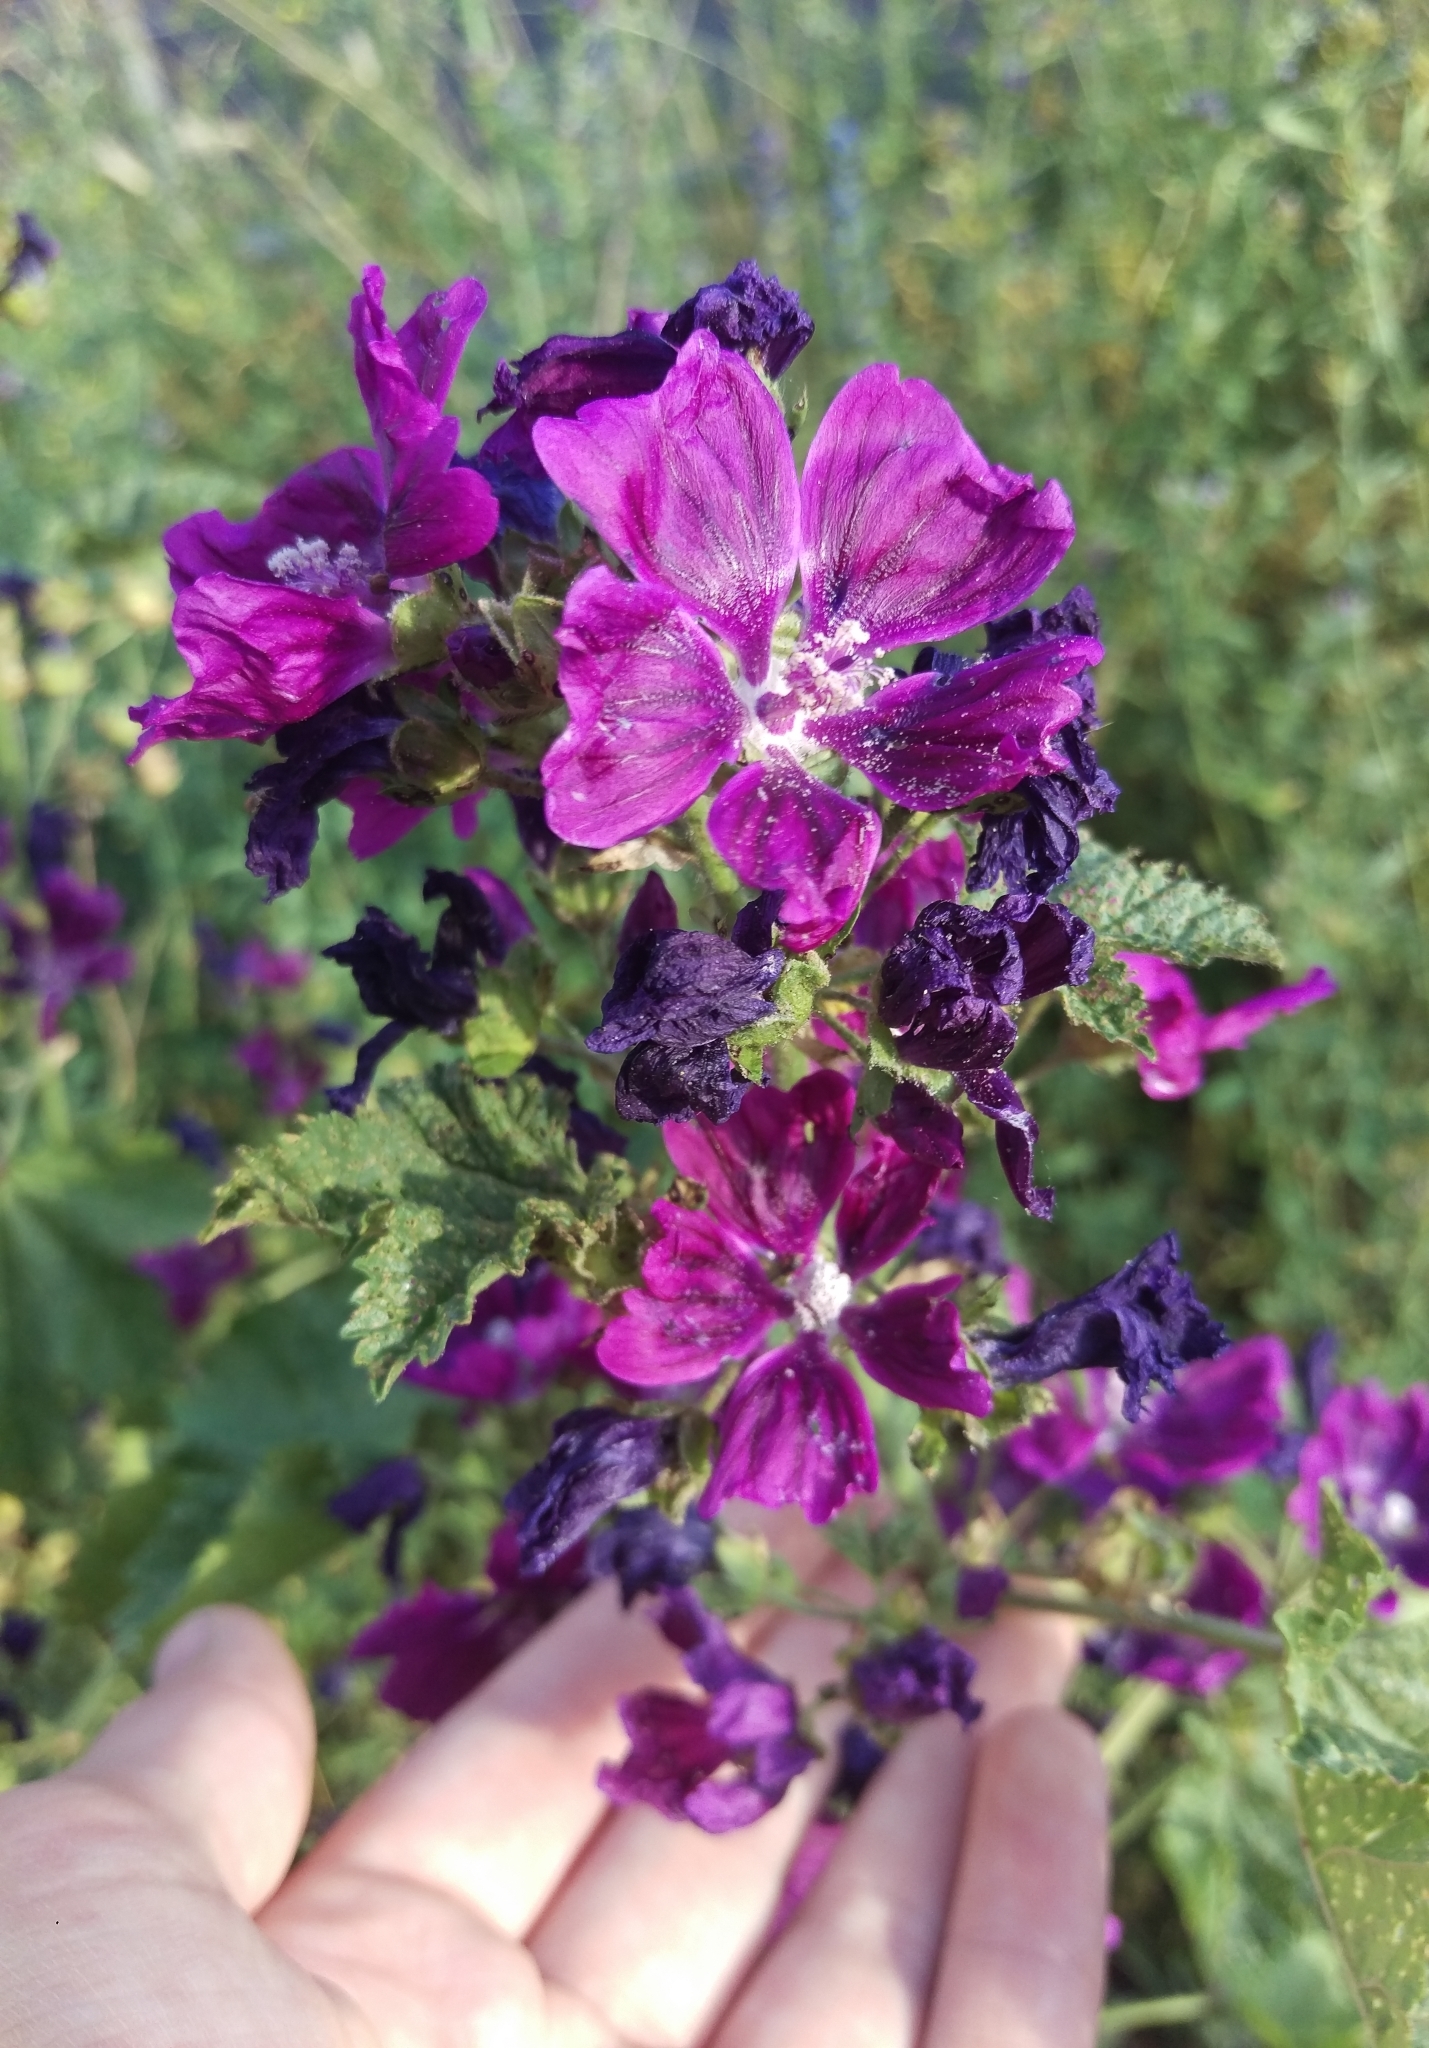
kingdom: Plantae
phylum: Tracheophyta
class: Magnoliopsida
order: Malvales
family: Malvaceae
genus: Malva
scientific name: Malva sylvestris
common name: Common mallow
